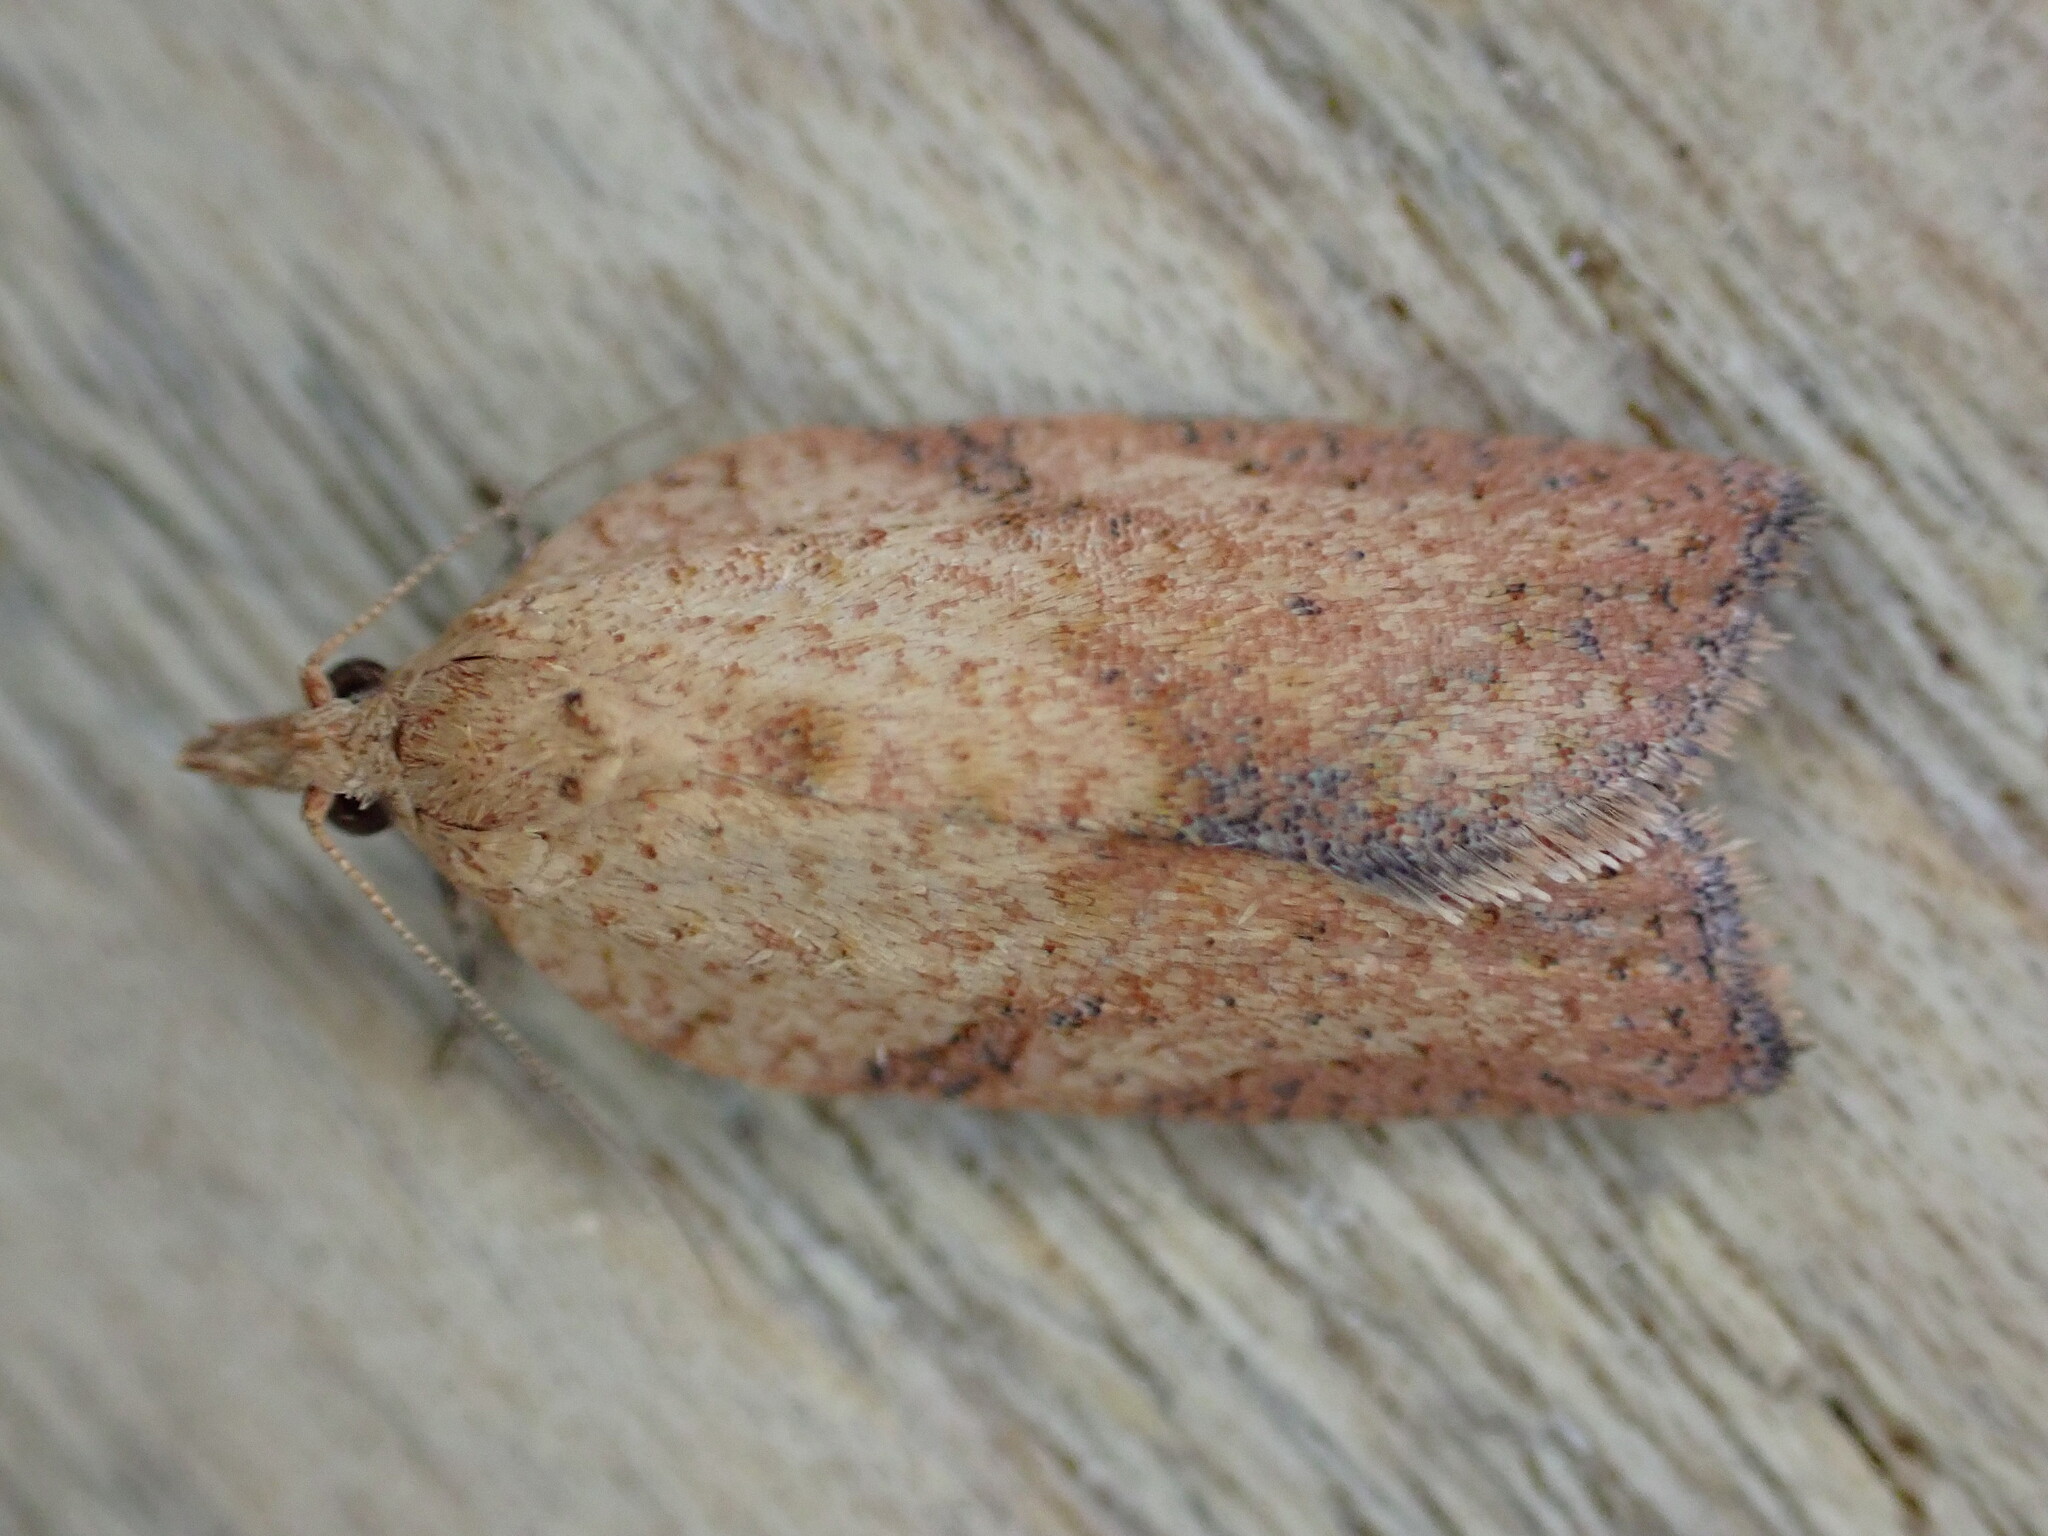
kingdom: Animalia
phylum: Arthropoda
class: Insecta
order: Lepidoptera
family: Tortricidae
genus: Epiphyas
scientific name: Epiphyas postvittana
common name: Light brown apple moth
